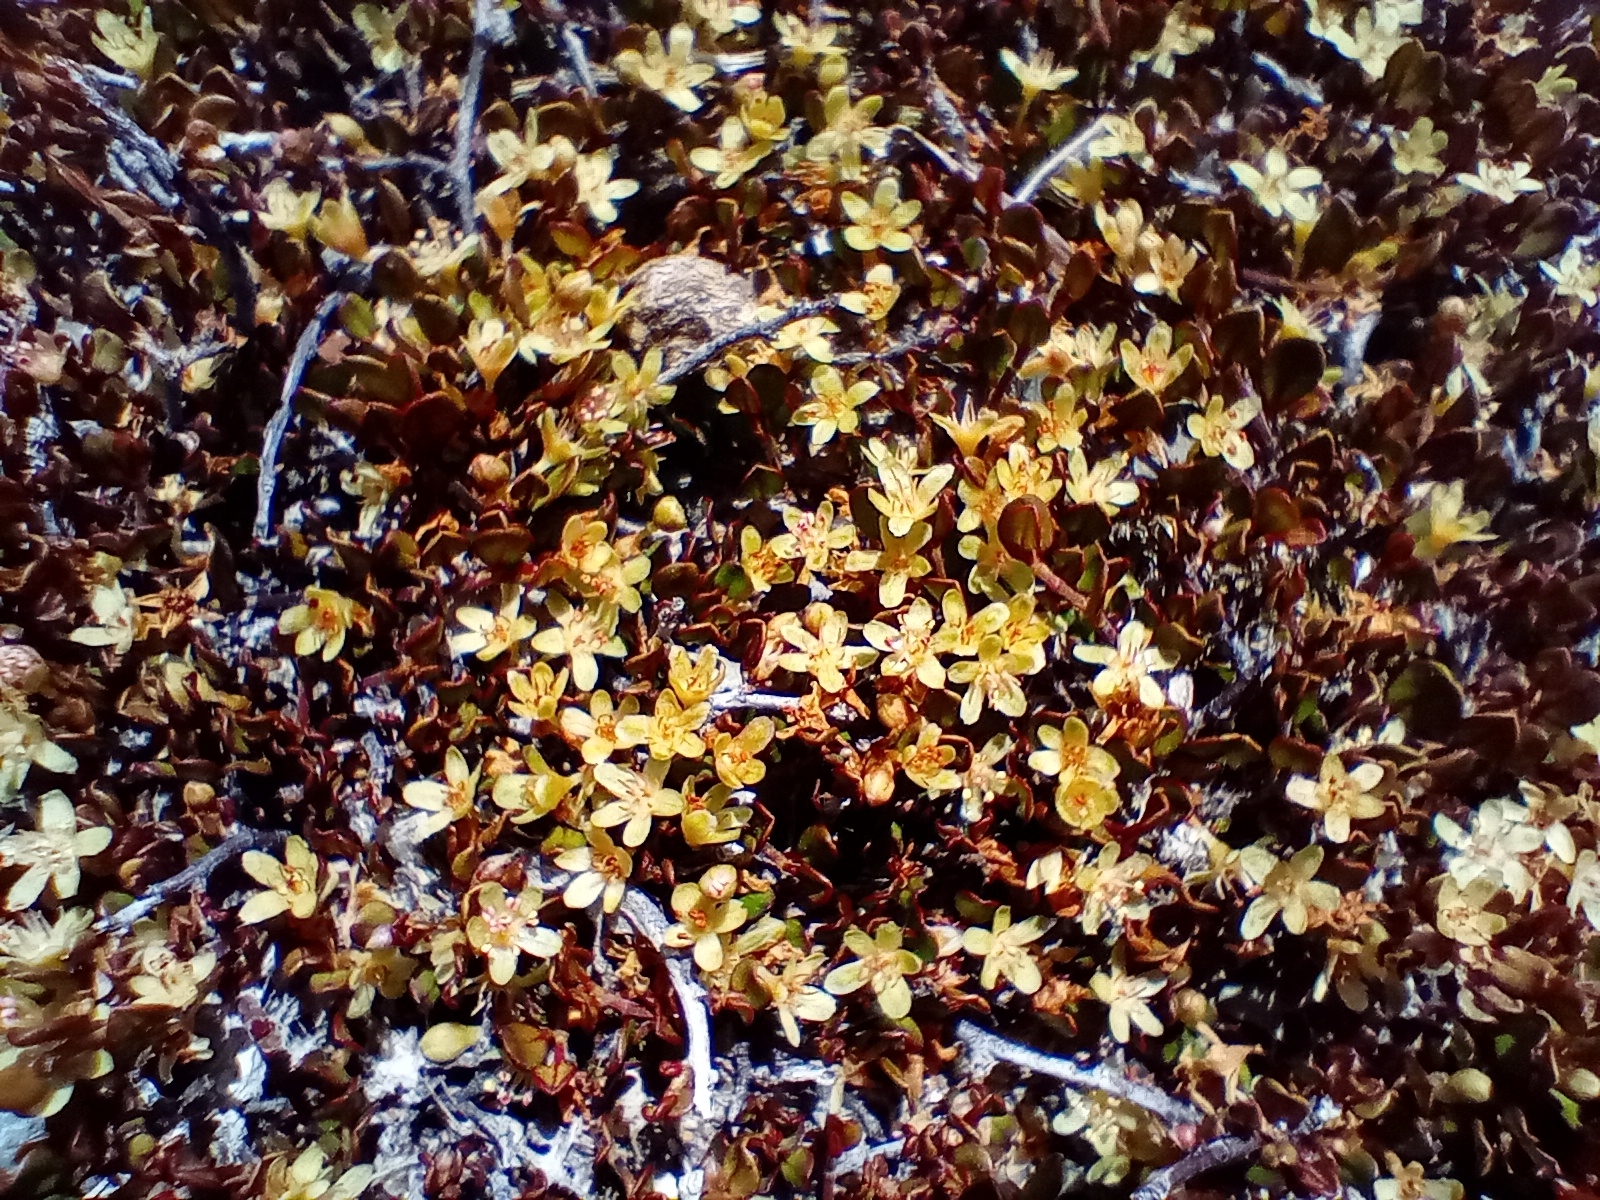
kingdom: Plantae
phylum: Tracheophyta
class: Magnoliopsida
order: Caryophyllales
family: Polygonaceae
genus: Muehlenbeckia
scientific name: Muehlenbeckia axillaris
